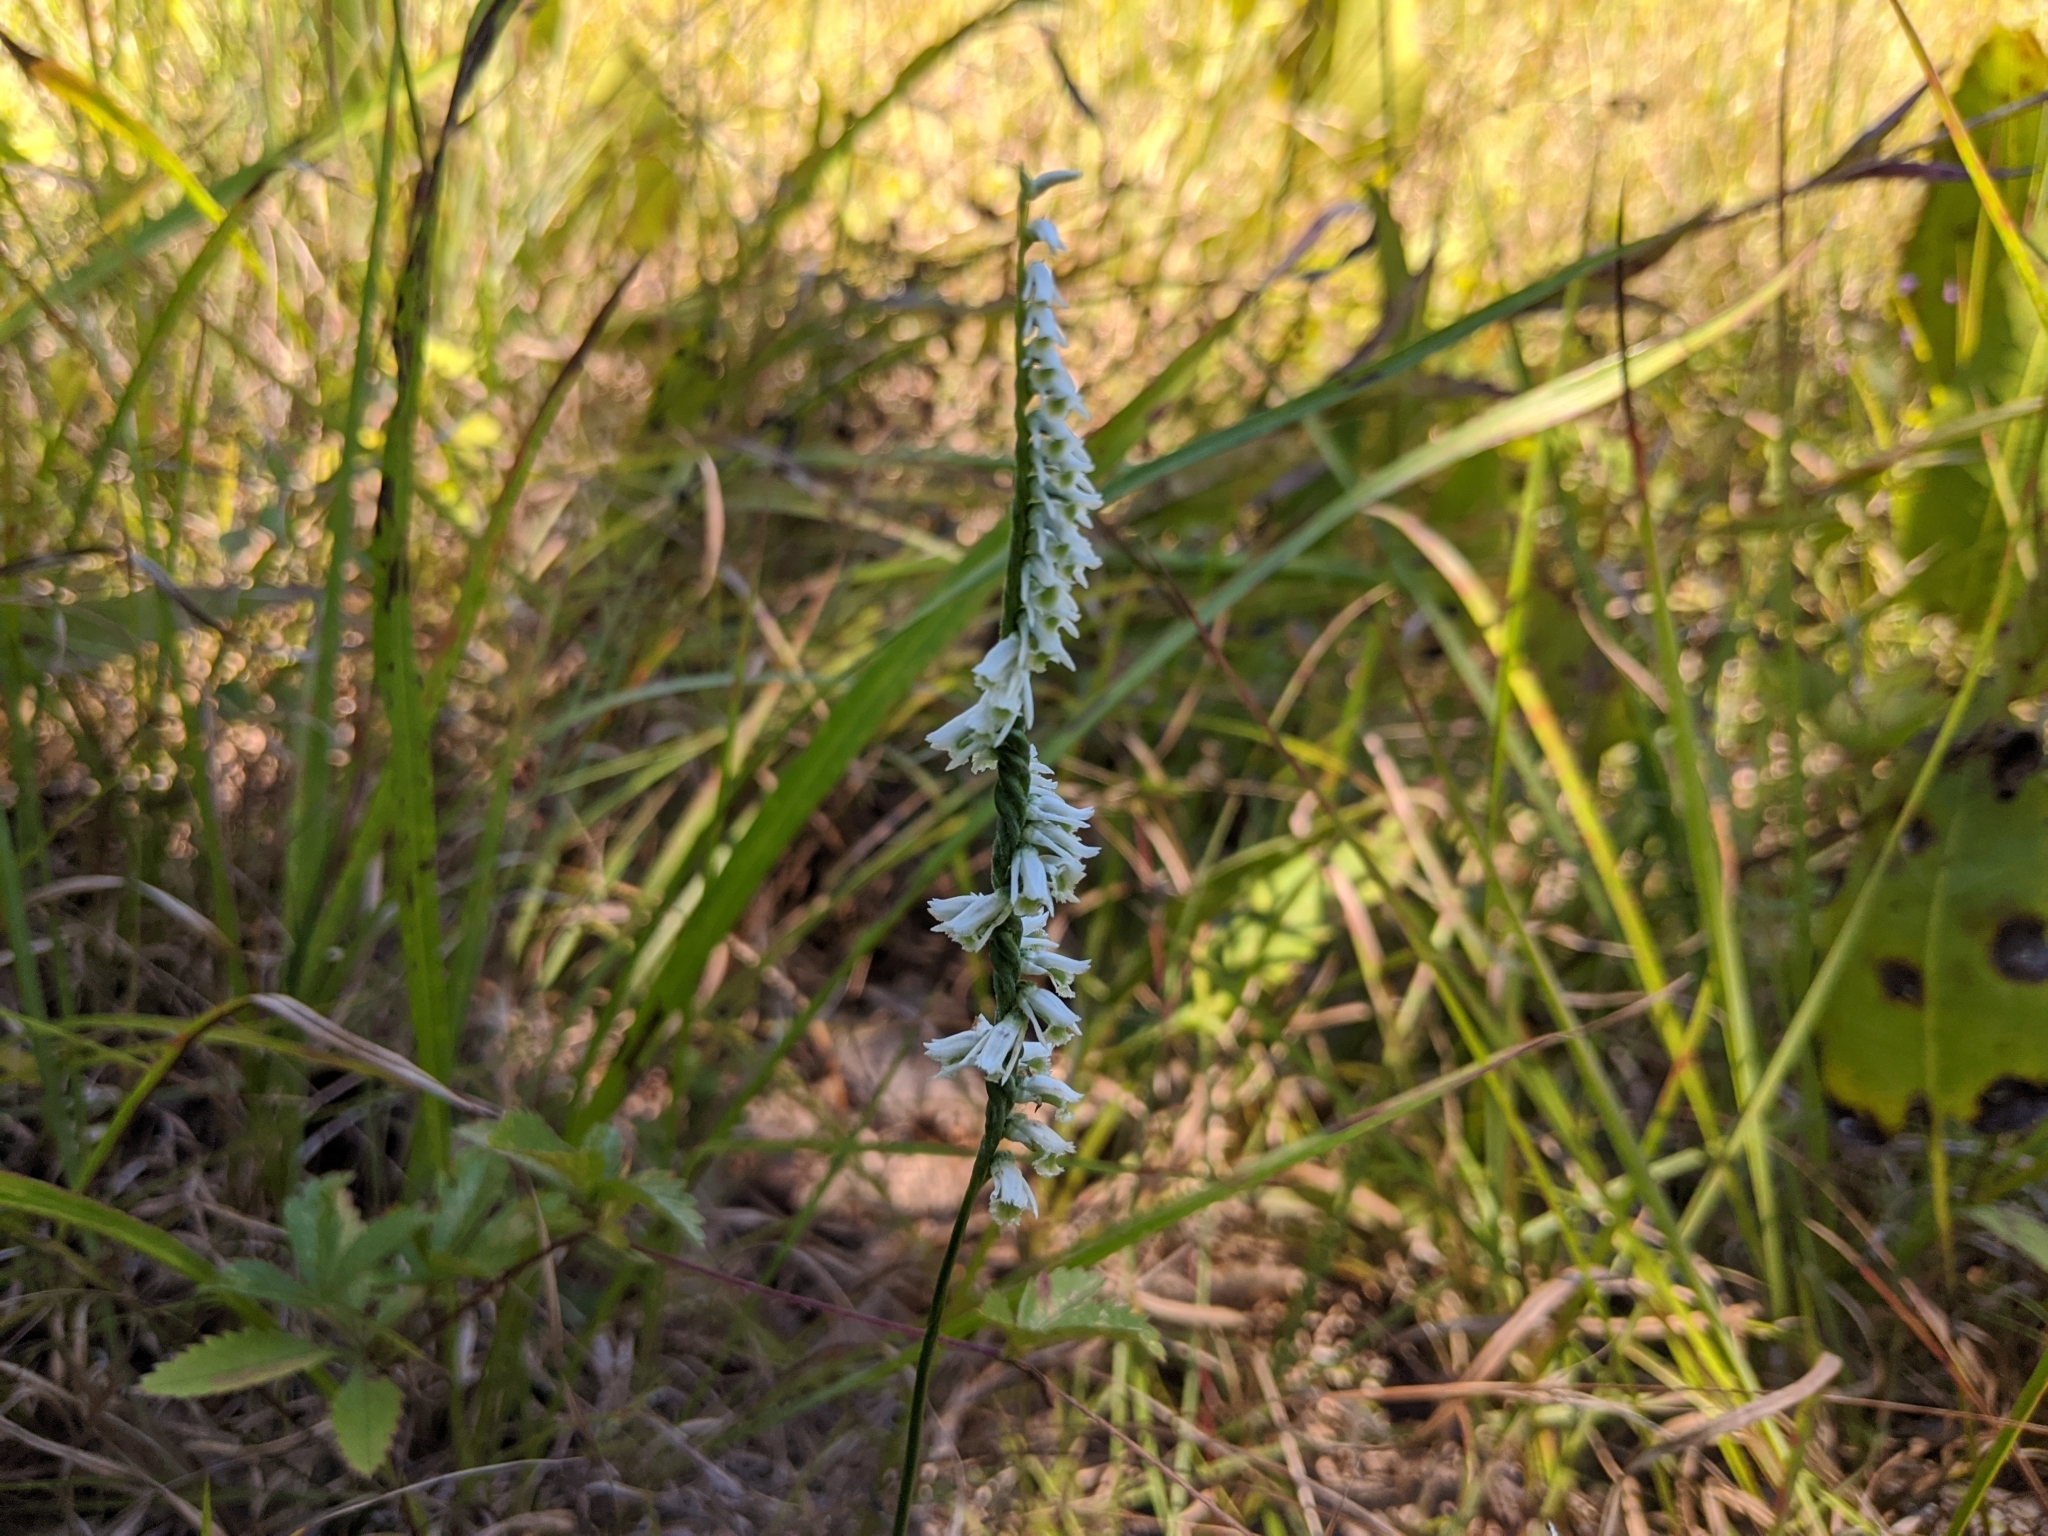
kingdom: Plantae
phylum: Tracheophyta
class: Liliopsida
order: Asparagales
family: Orchidaceae
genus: Spiranthes
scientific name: Spiranthes lacera
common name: Northern slender ladies'-tresses
